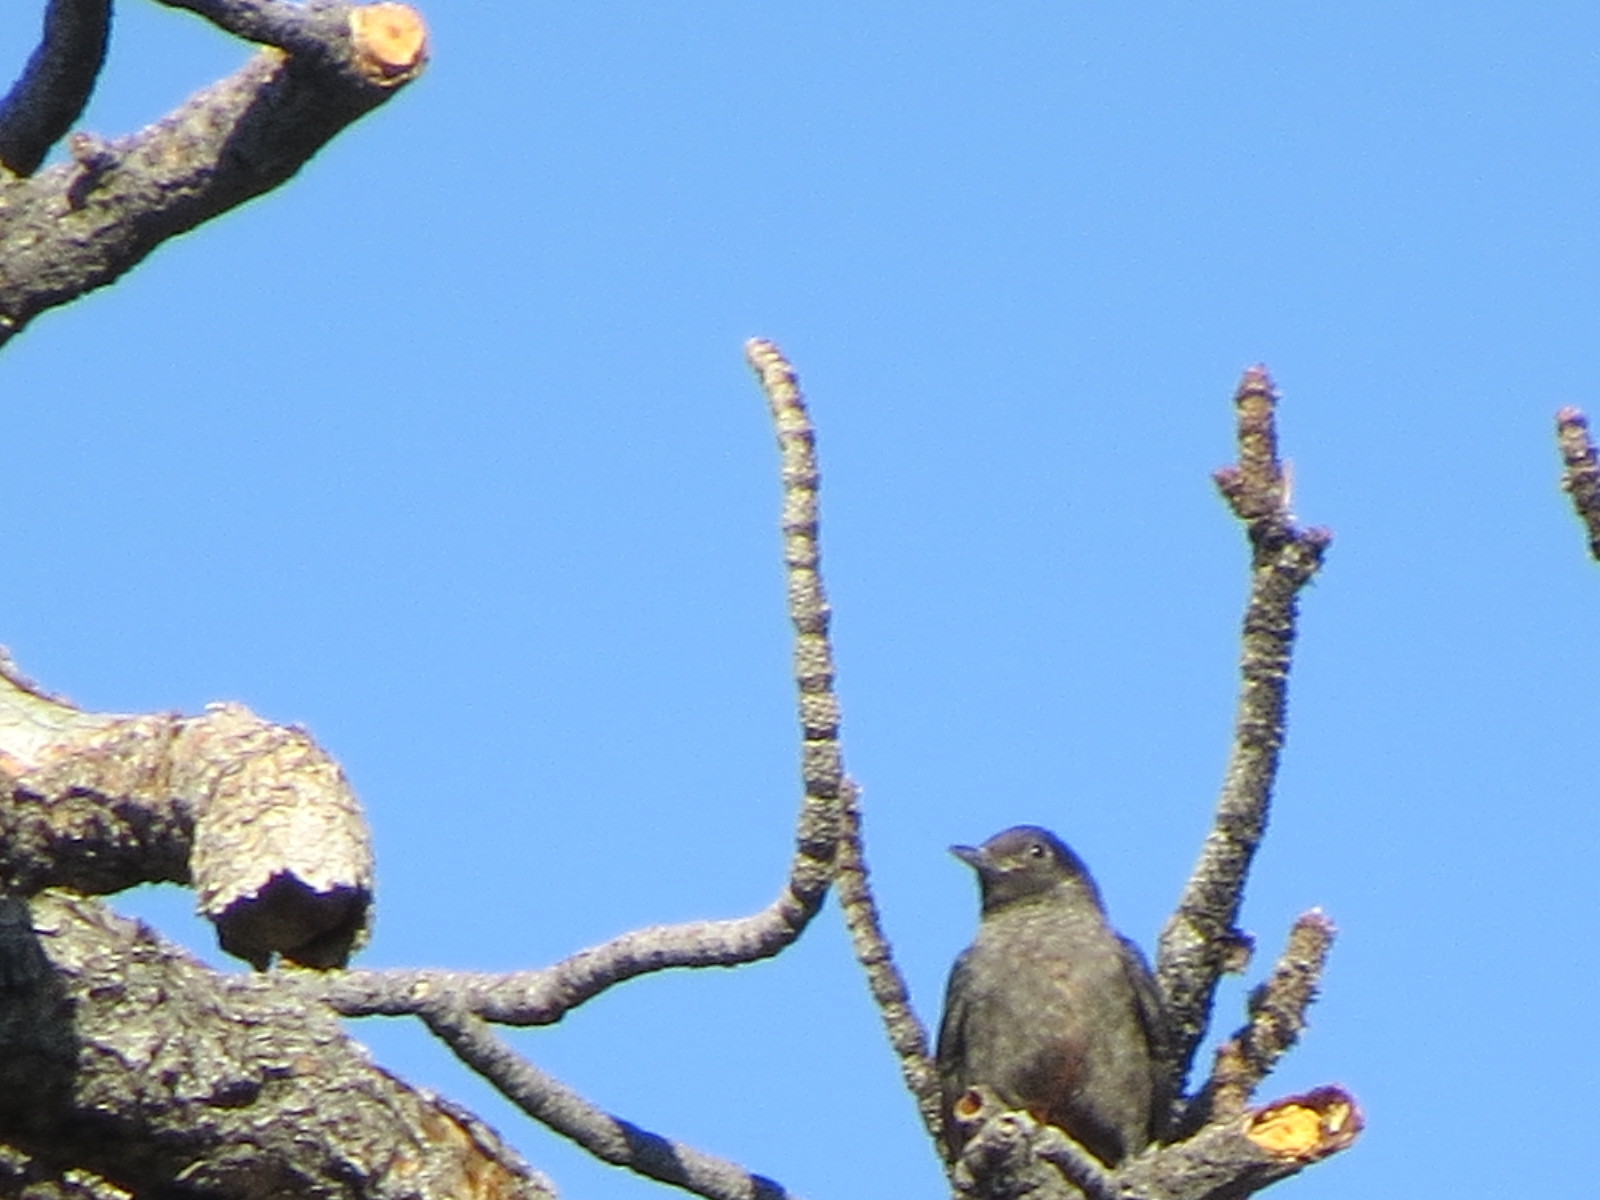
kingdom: Animalia
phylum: Chordata
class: Aves
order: Piciformes
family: Picidae
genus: Melanerpes
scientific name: Melanerpes lewis
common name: Lewis's woodpecker
